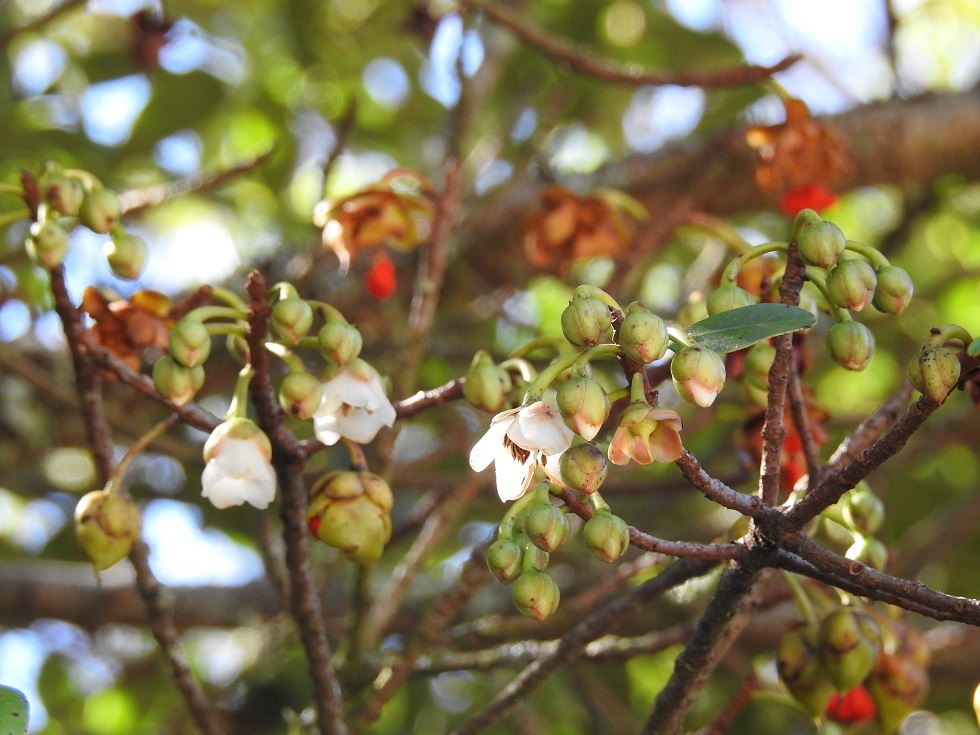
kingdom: Plantae
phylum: Tracheophyta
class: Magnoliopsida
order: Ericales
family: Pentaphylacaceae
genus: Ternstroemia
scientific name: Ternstroemia lineata
